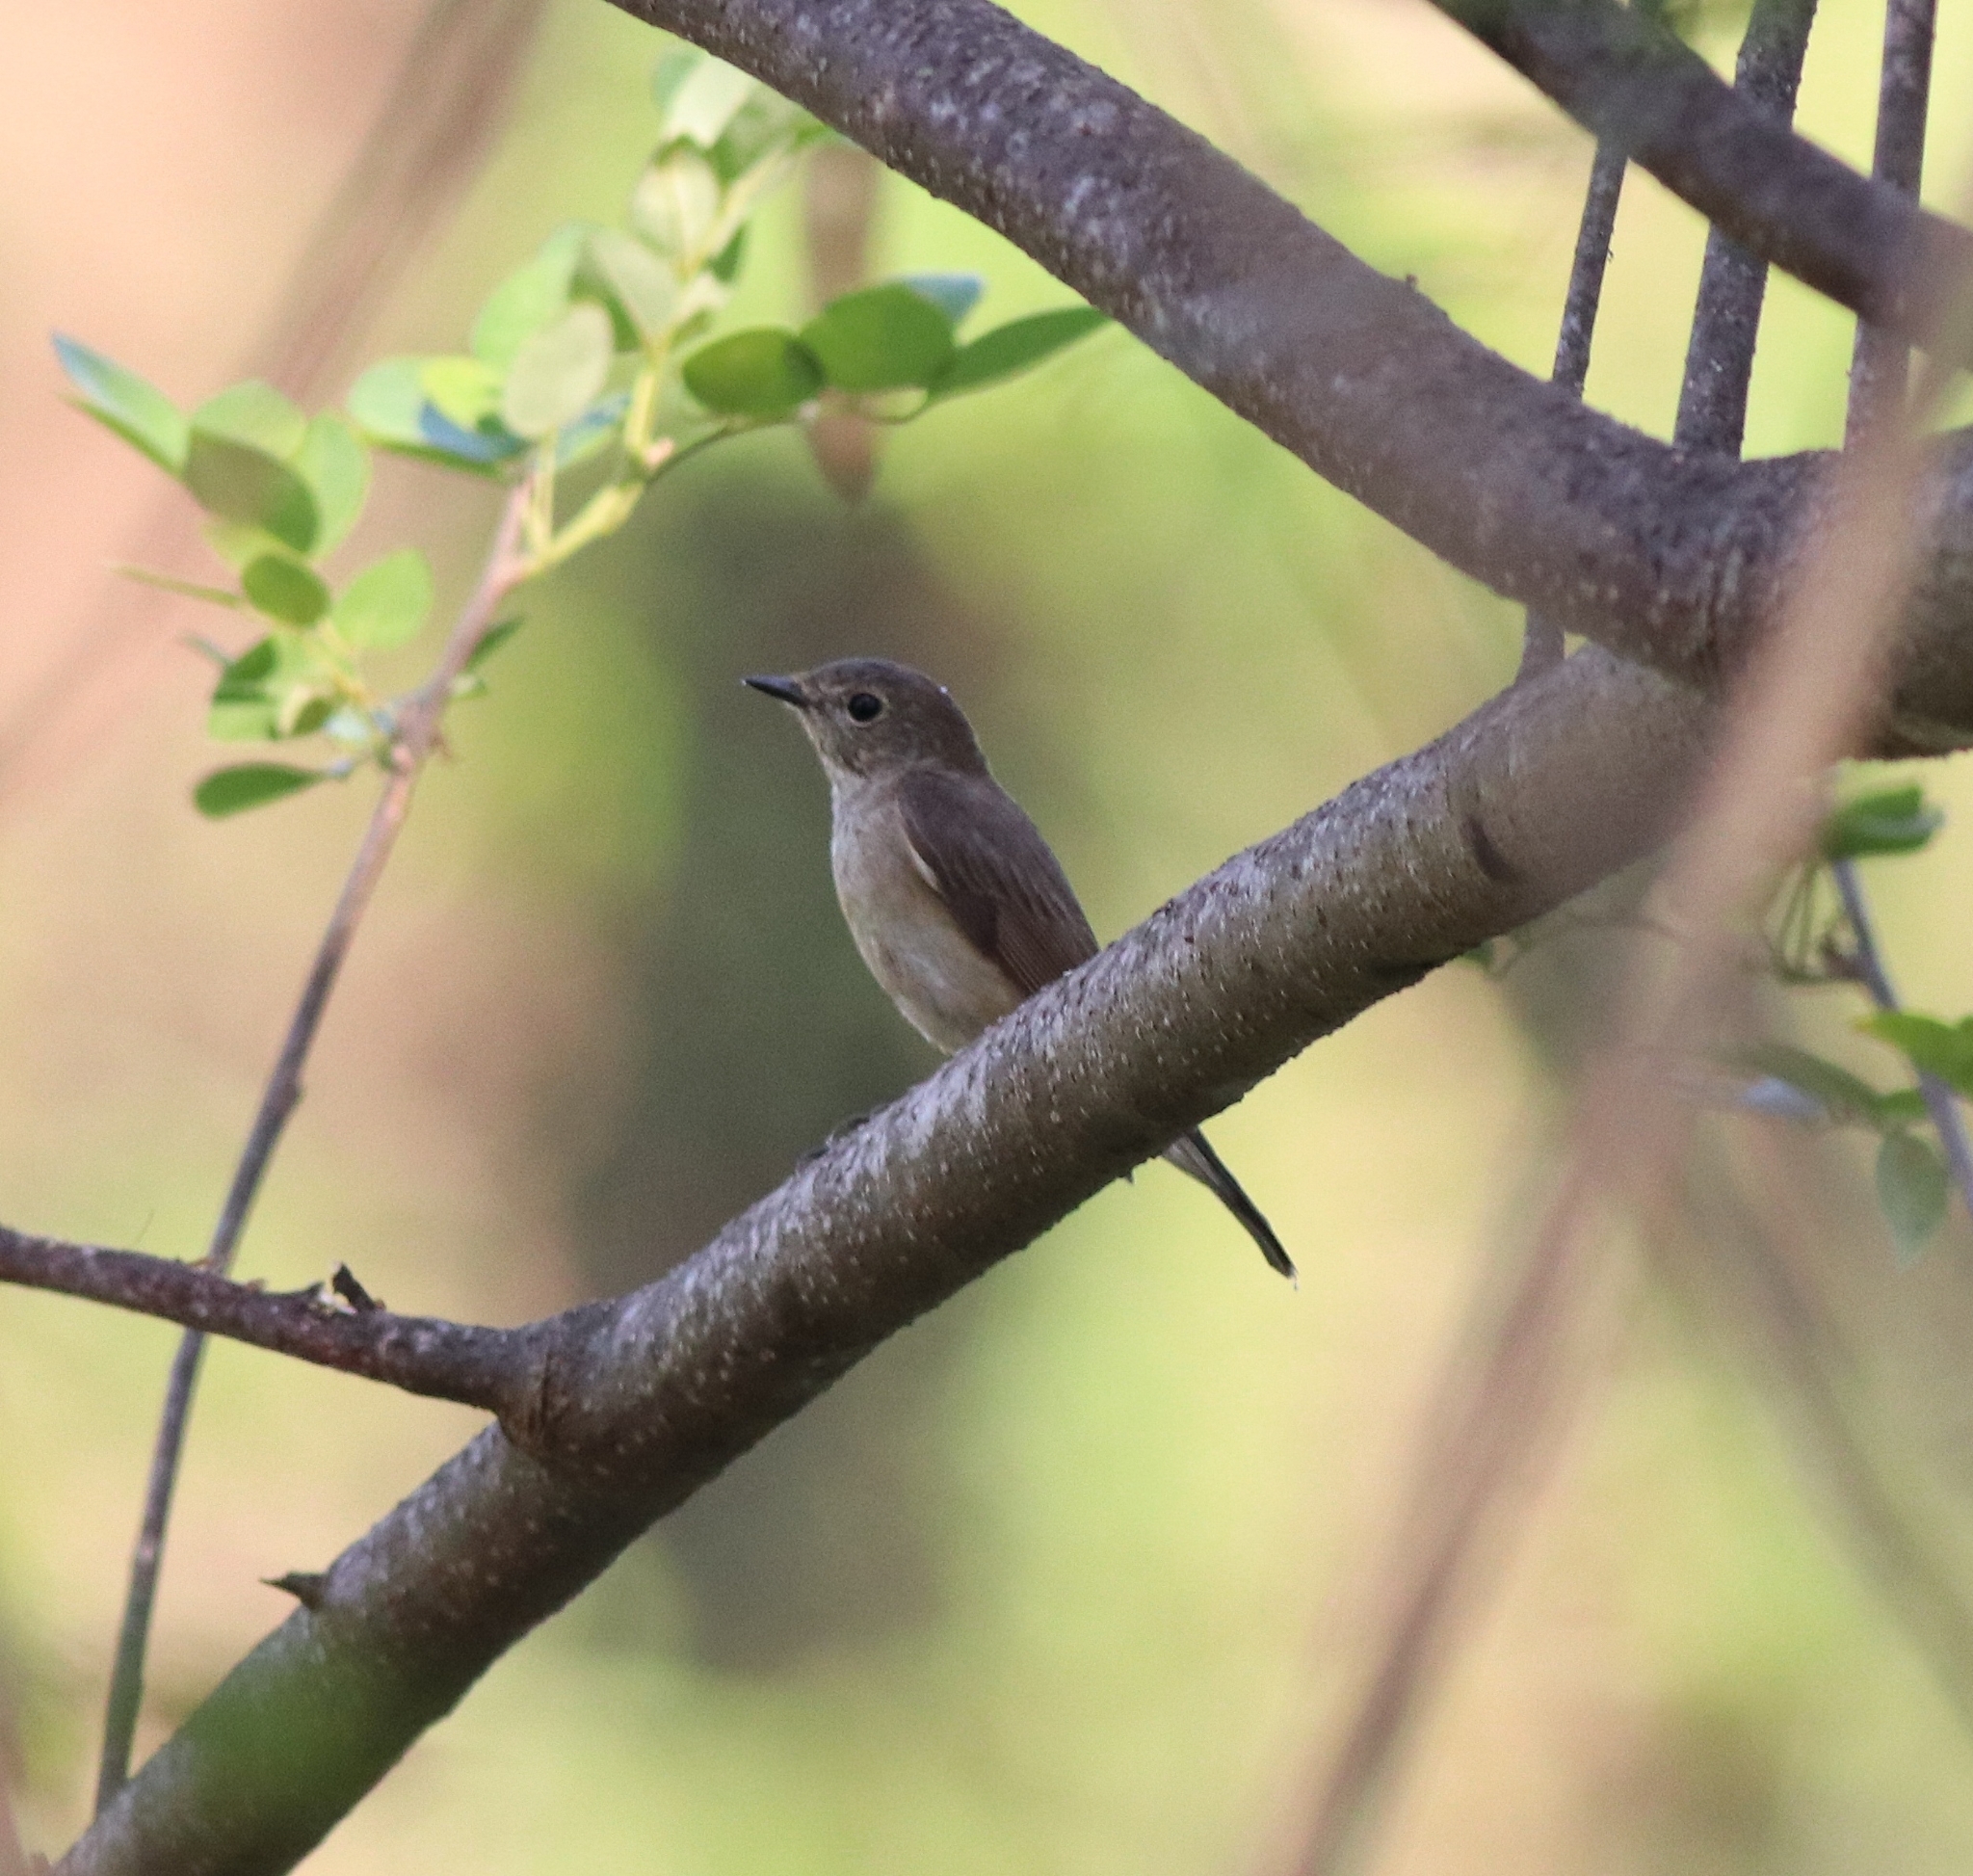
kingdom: Animalia
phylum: Chordata
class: Aves
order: Passeriformes
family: Muscicapidae
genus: Ficedula
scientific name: Ficedula albicilla
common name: Taiga flycatcher
